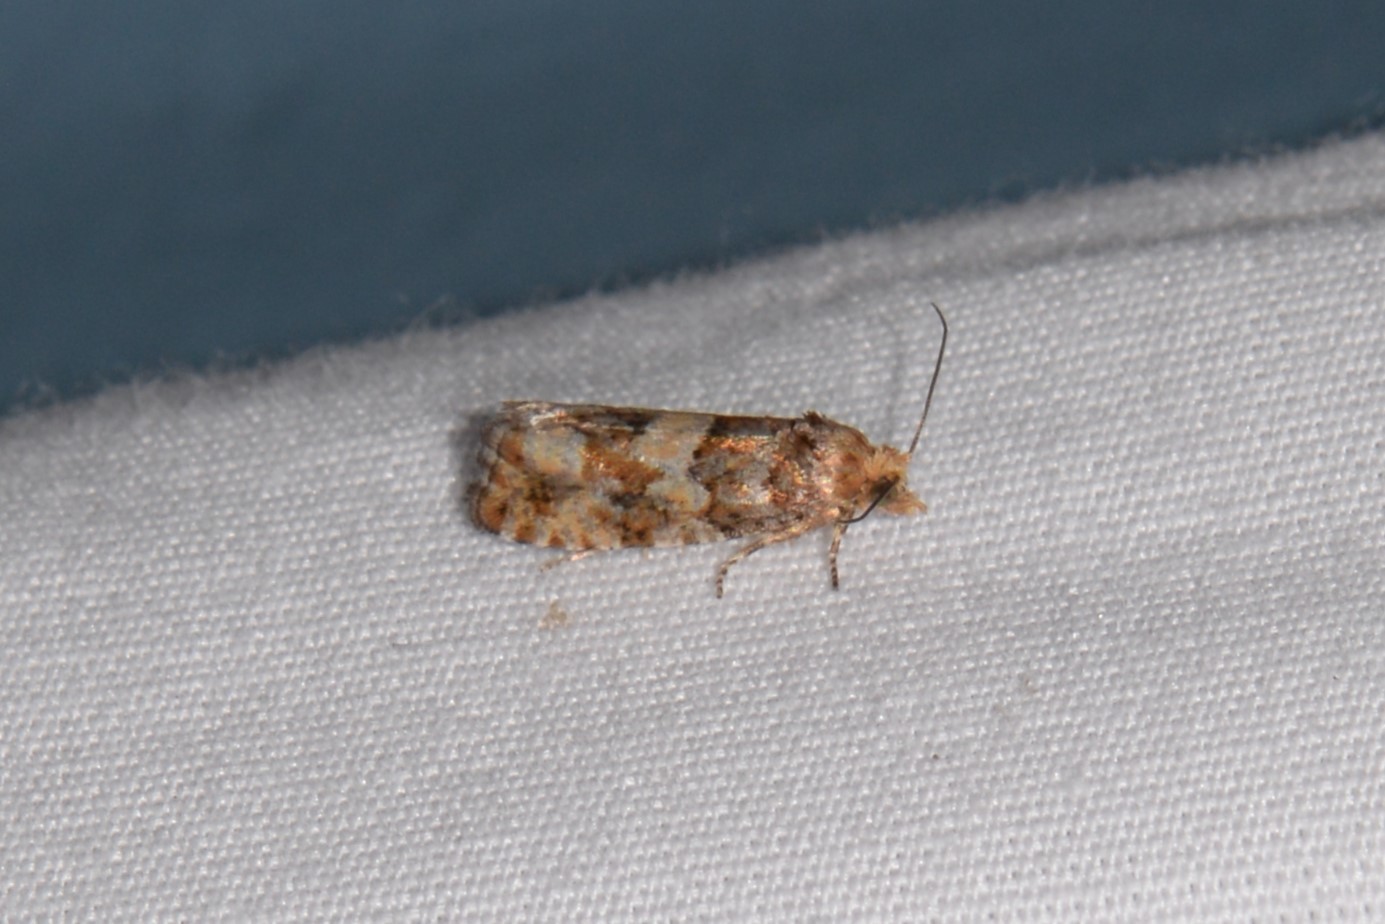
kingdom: Animalia
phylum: Arthropoda
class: Insecta
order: Lepidoptera
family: Tortricidae
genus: Eucopina
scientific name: Eucopina tocullionana
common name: White pinecone borer moth
